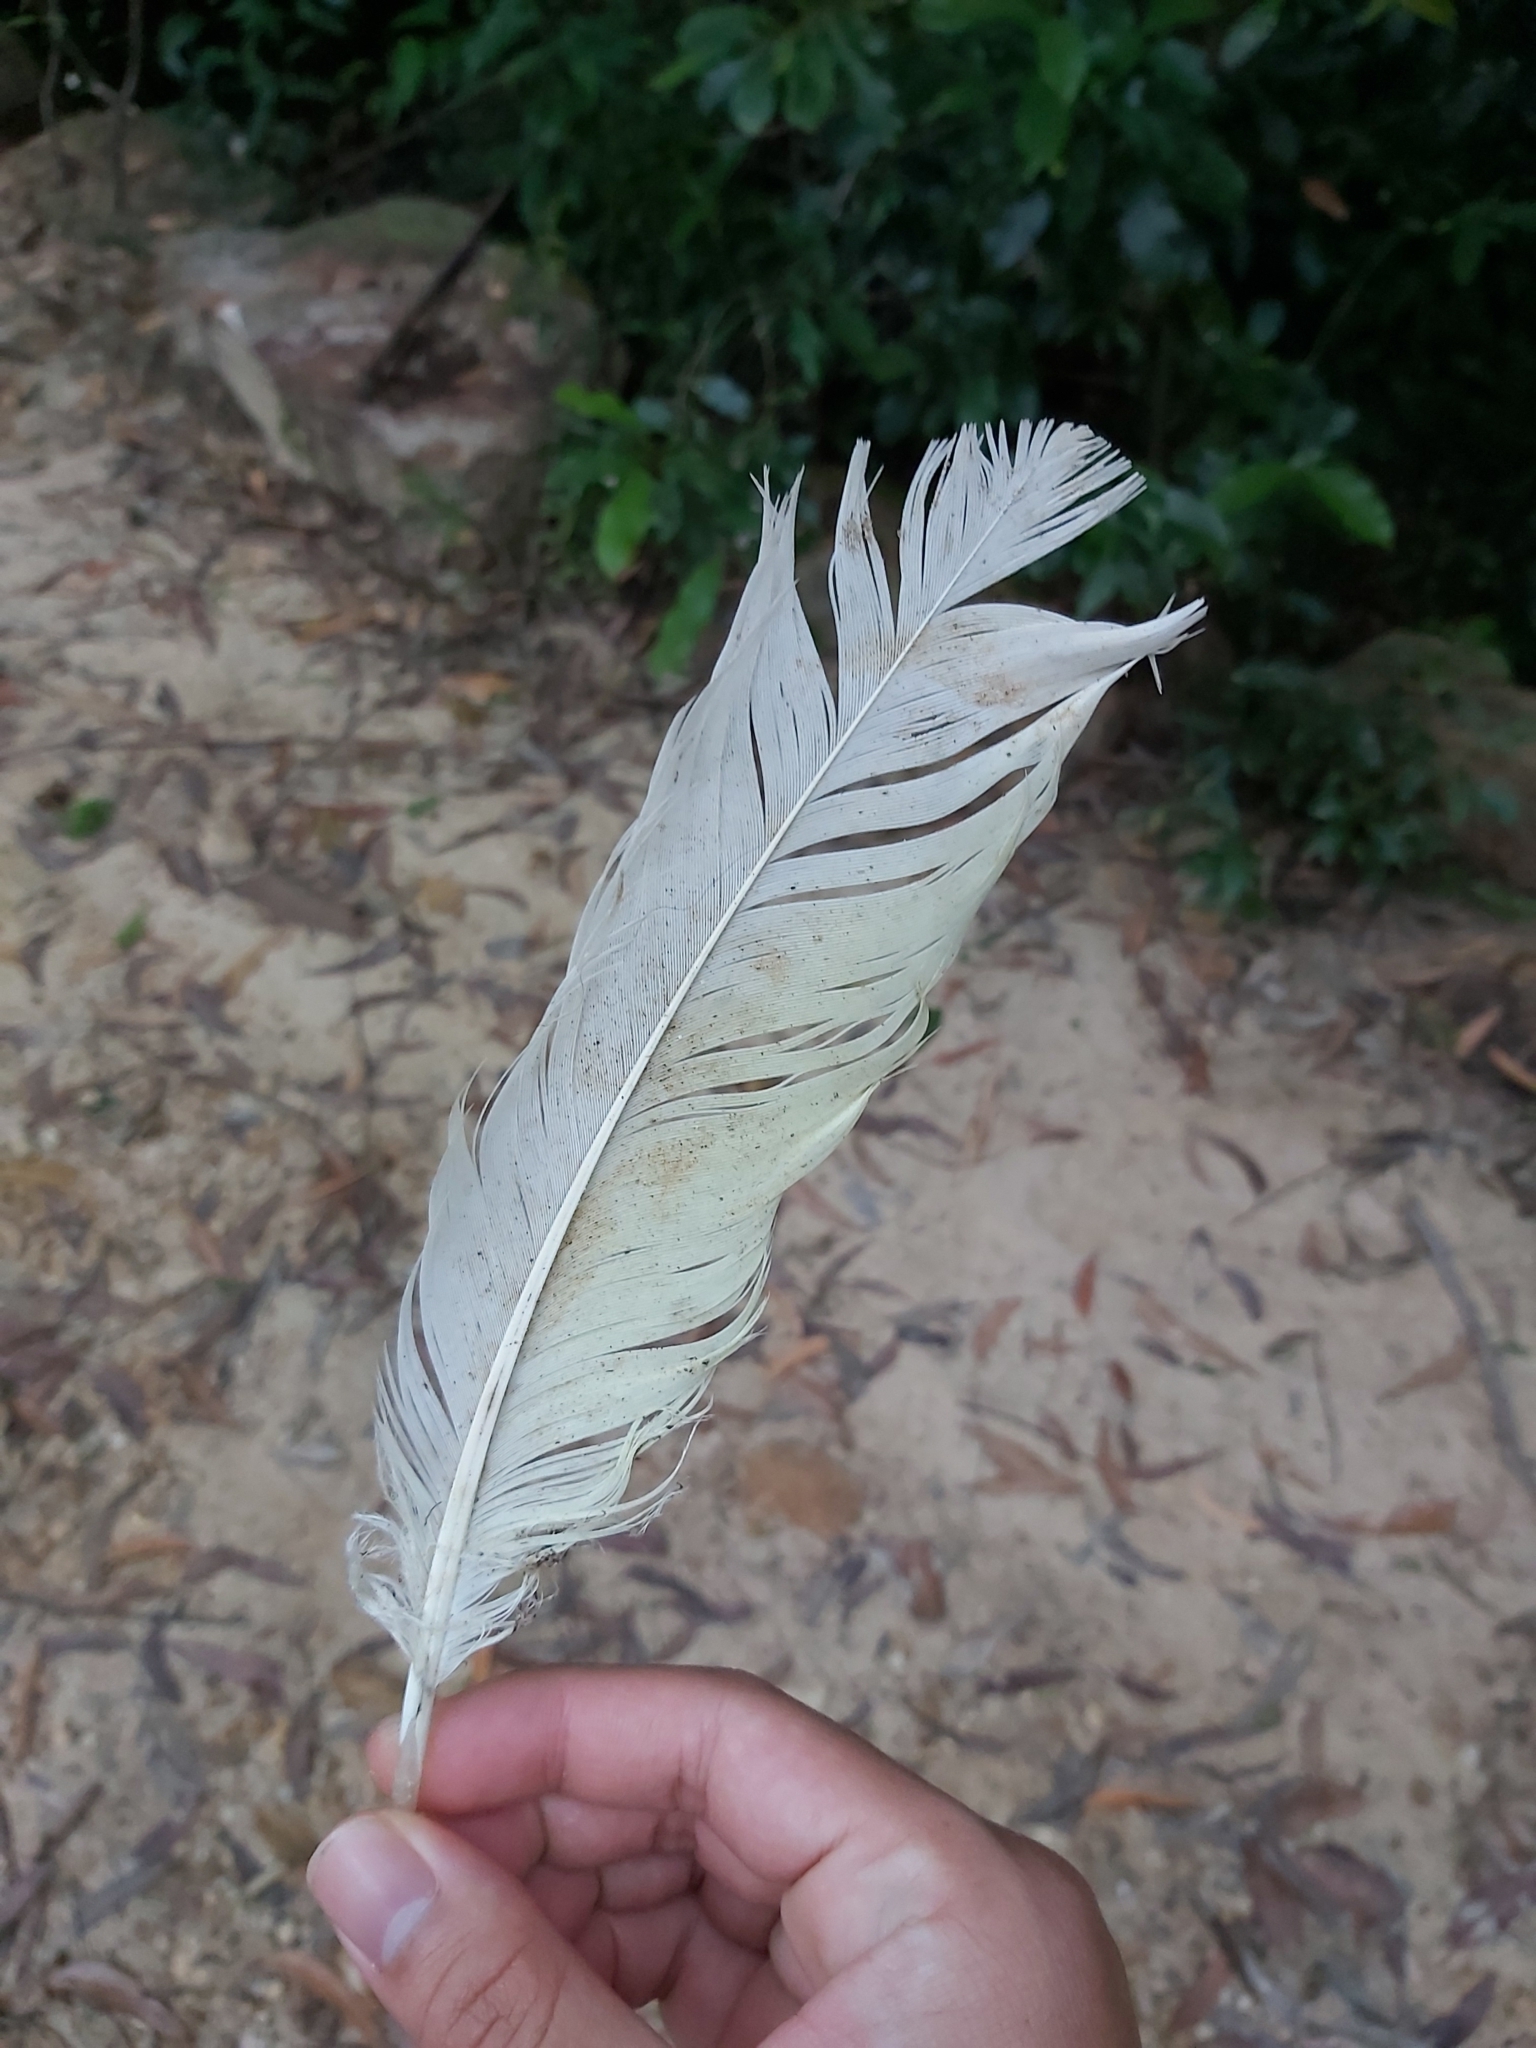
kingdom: Animalia
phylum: Chordata
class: Aves
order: Psittaciformes
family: Psittacidae
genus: Cacatua
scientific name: Cacatua galerita
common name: Sulphur-crested cockatoo
